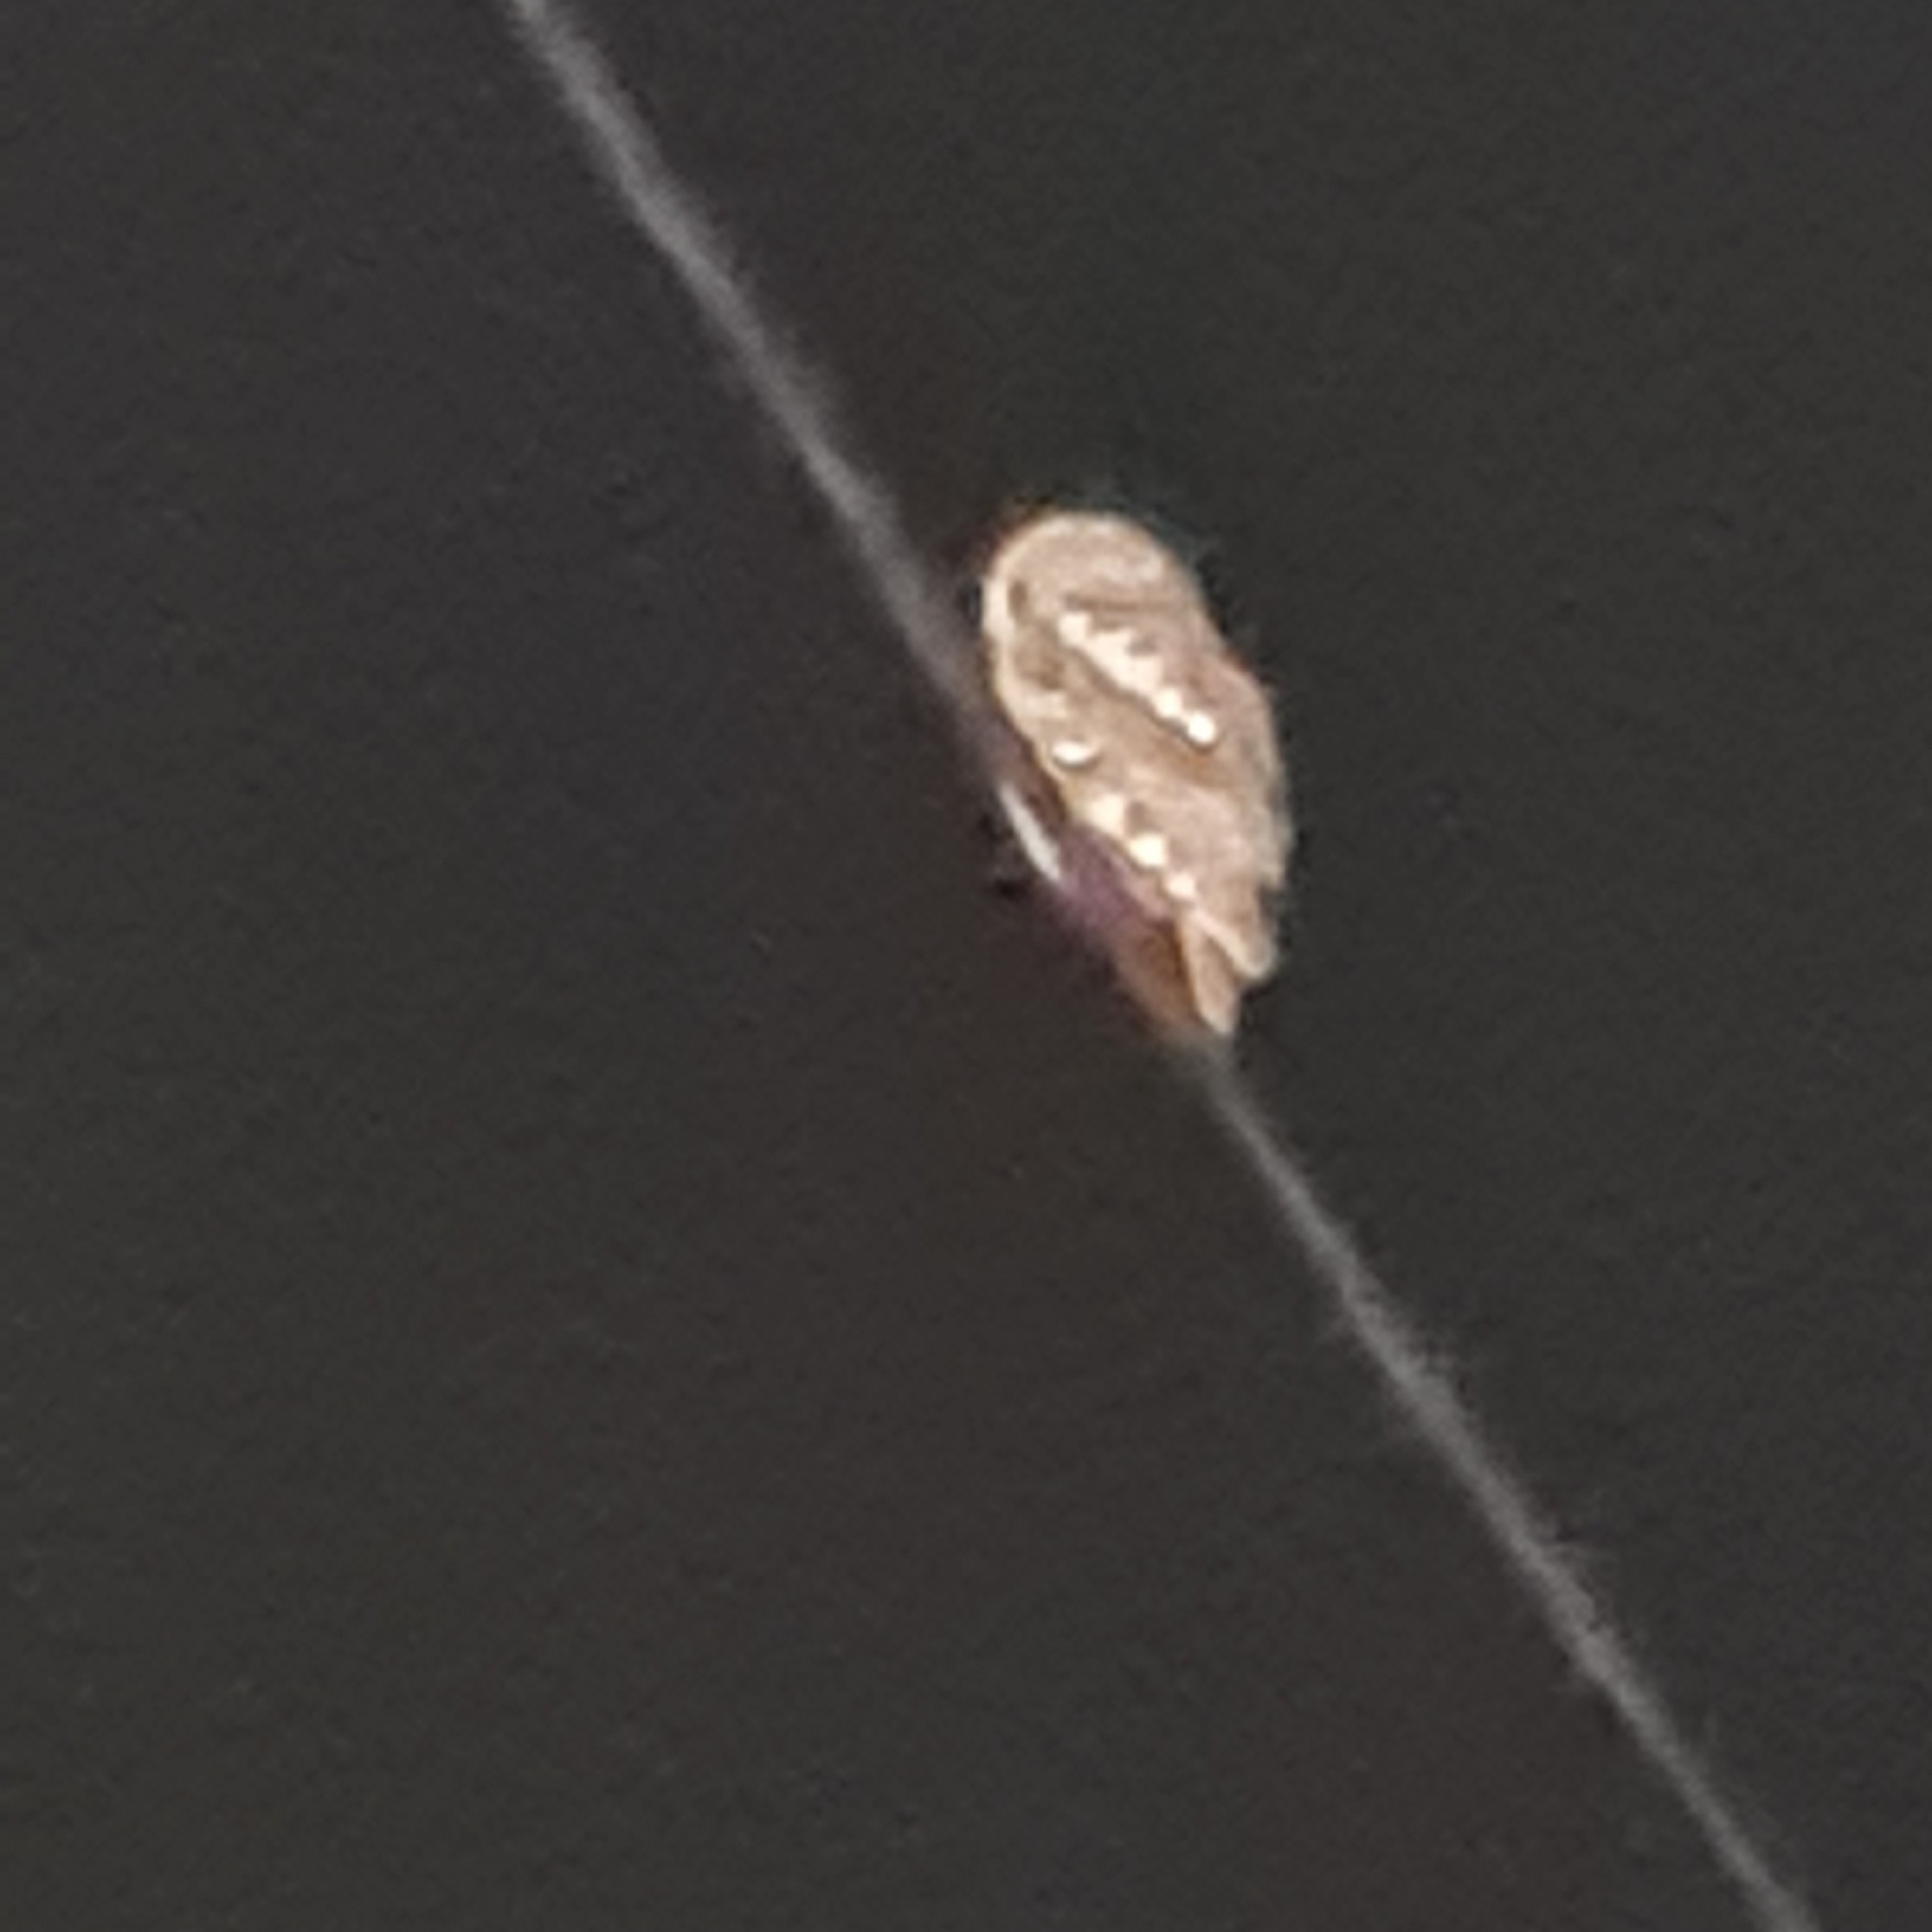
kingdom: Animalia
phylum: Chordata
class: Aves
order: Strigiformes
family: Strigidae
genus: Strix
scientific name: Strix aluco
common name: Tawny owl
